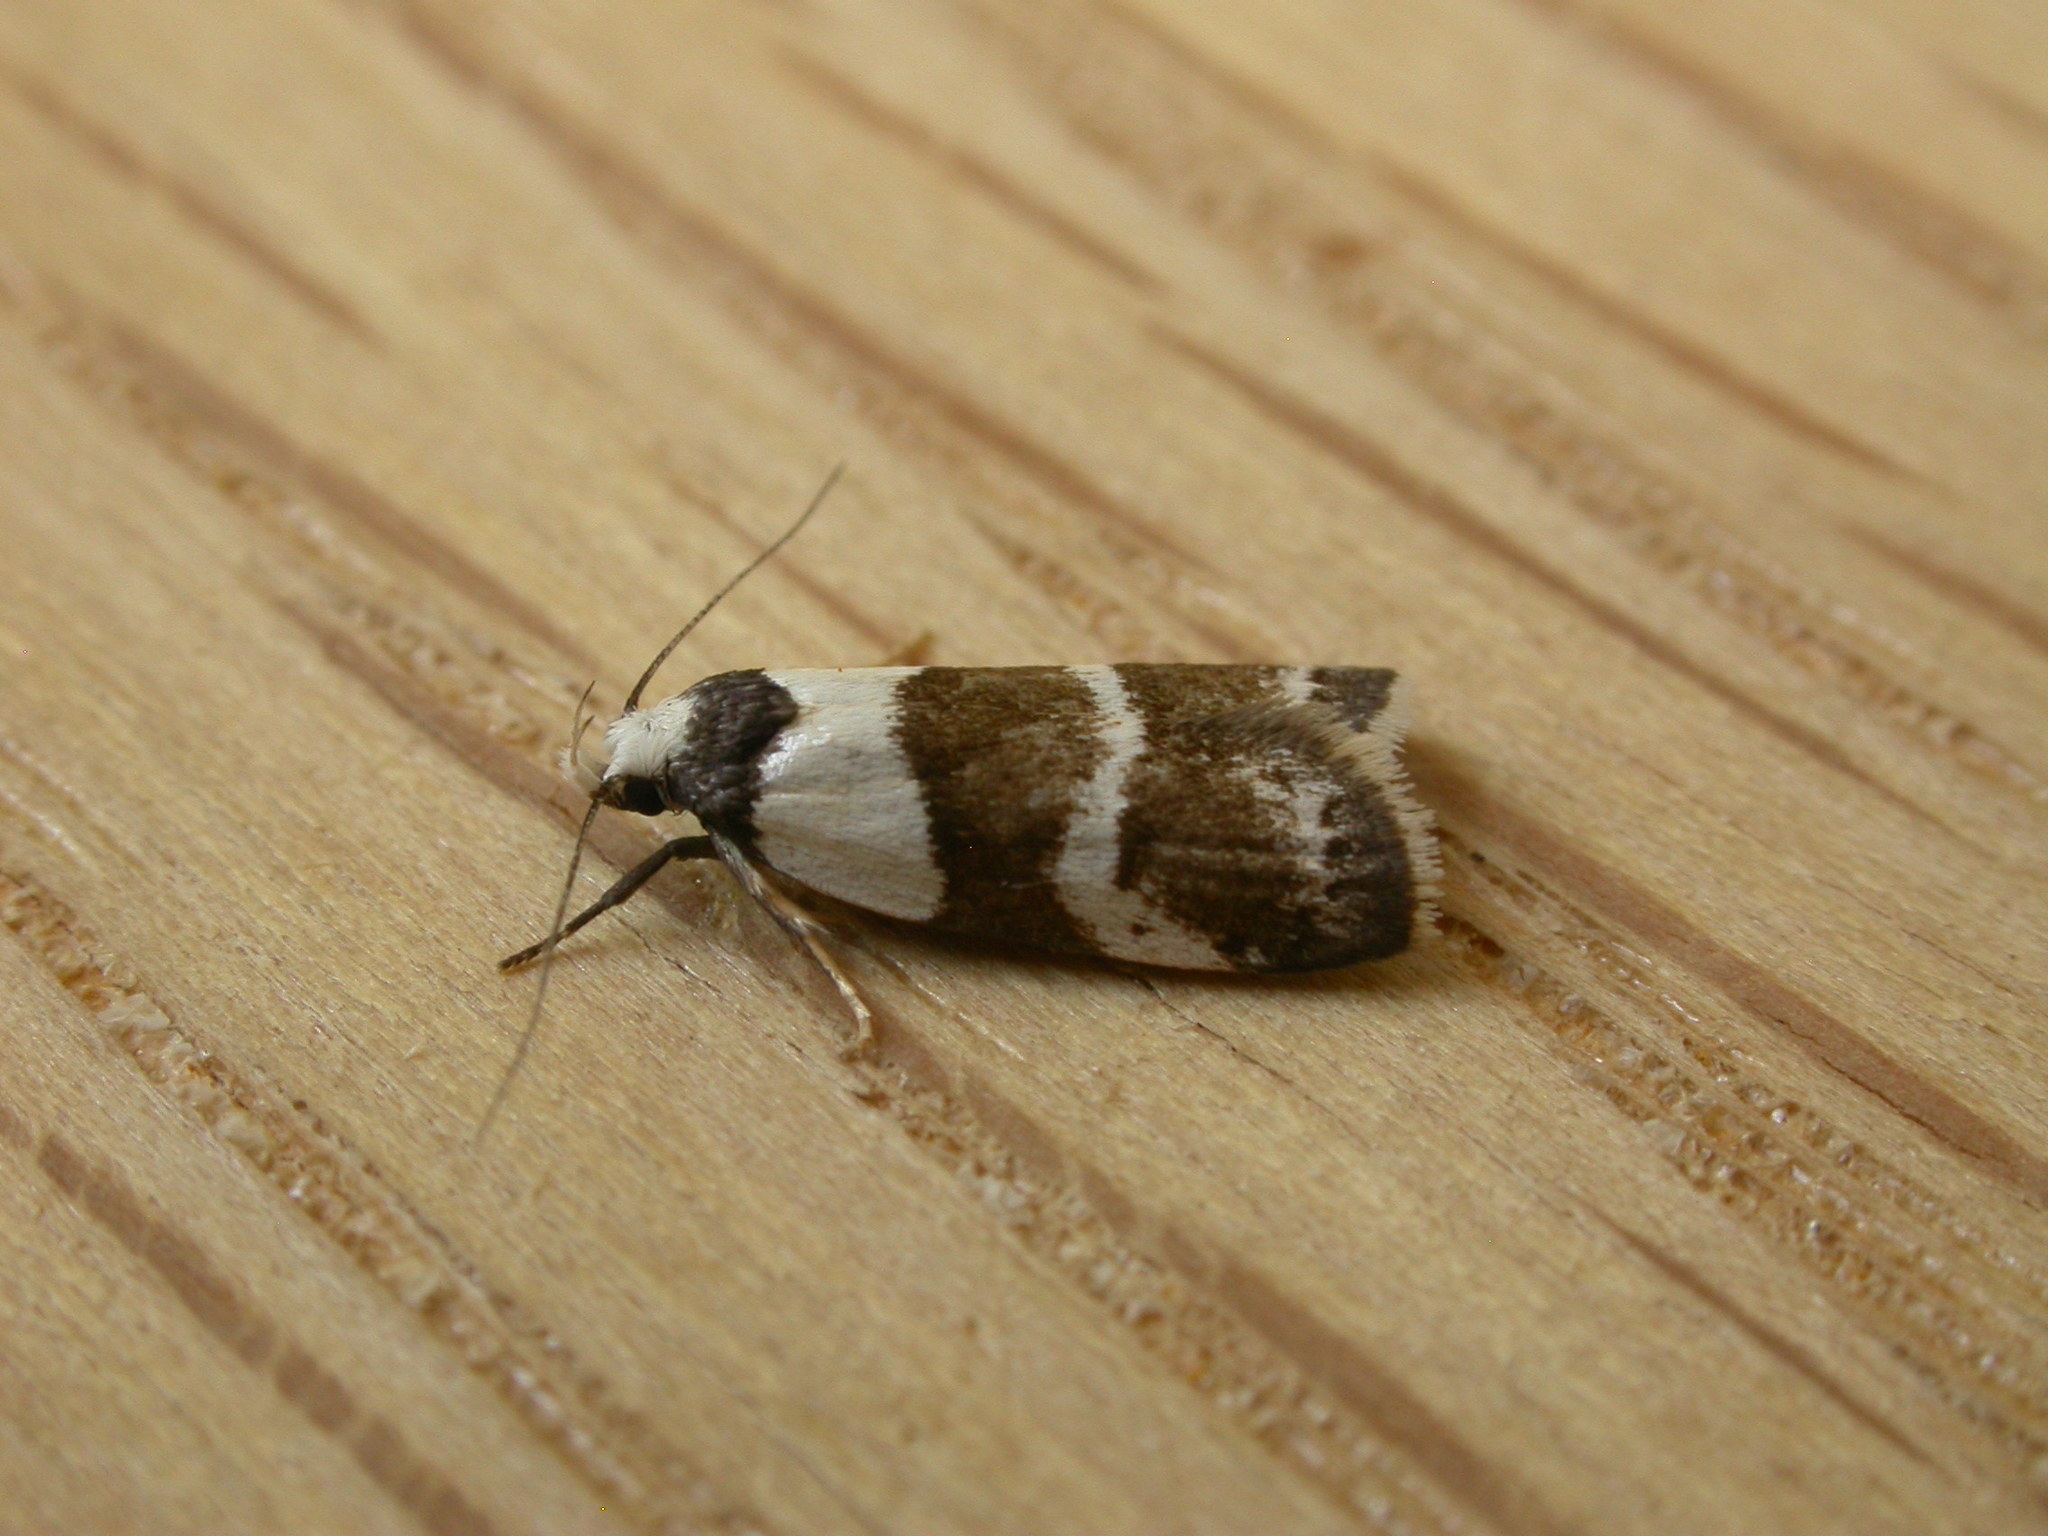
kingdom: Animalia
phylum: Arthropoda
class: Insecta
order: Lepidoptera
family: Oecophoridae
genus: Eulechria
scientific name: Eulechria triferella
